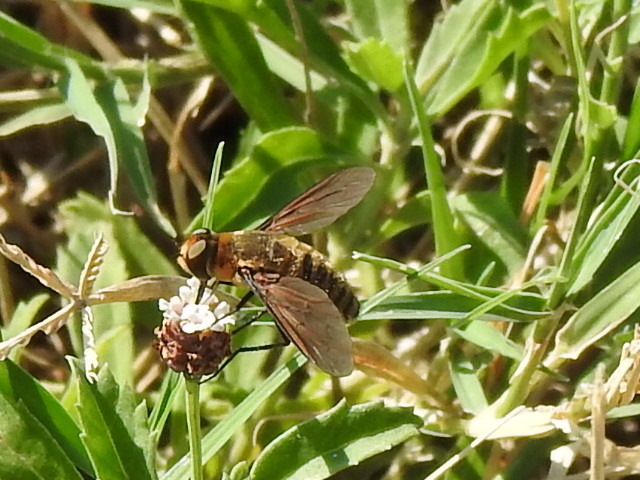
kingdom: Animalia
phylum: Arthropoda
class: Insecta
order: Diptera
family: Bombyliidae
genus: Poecilanthrax
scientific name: Poecilanthrax lucifer
